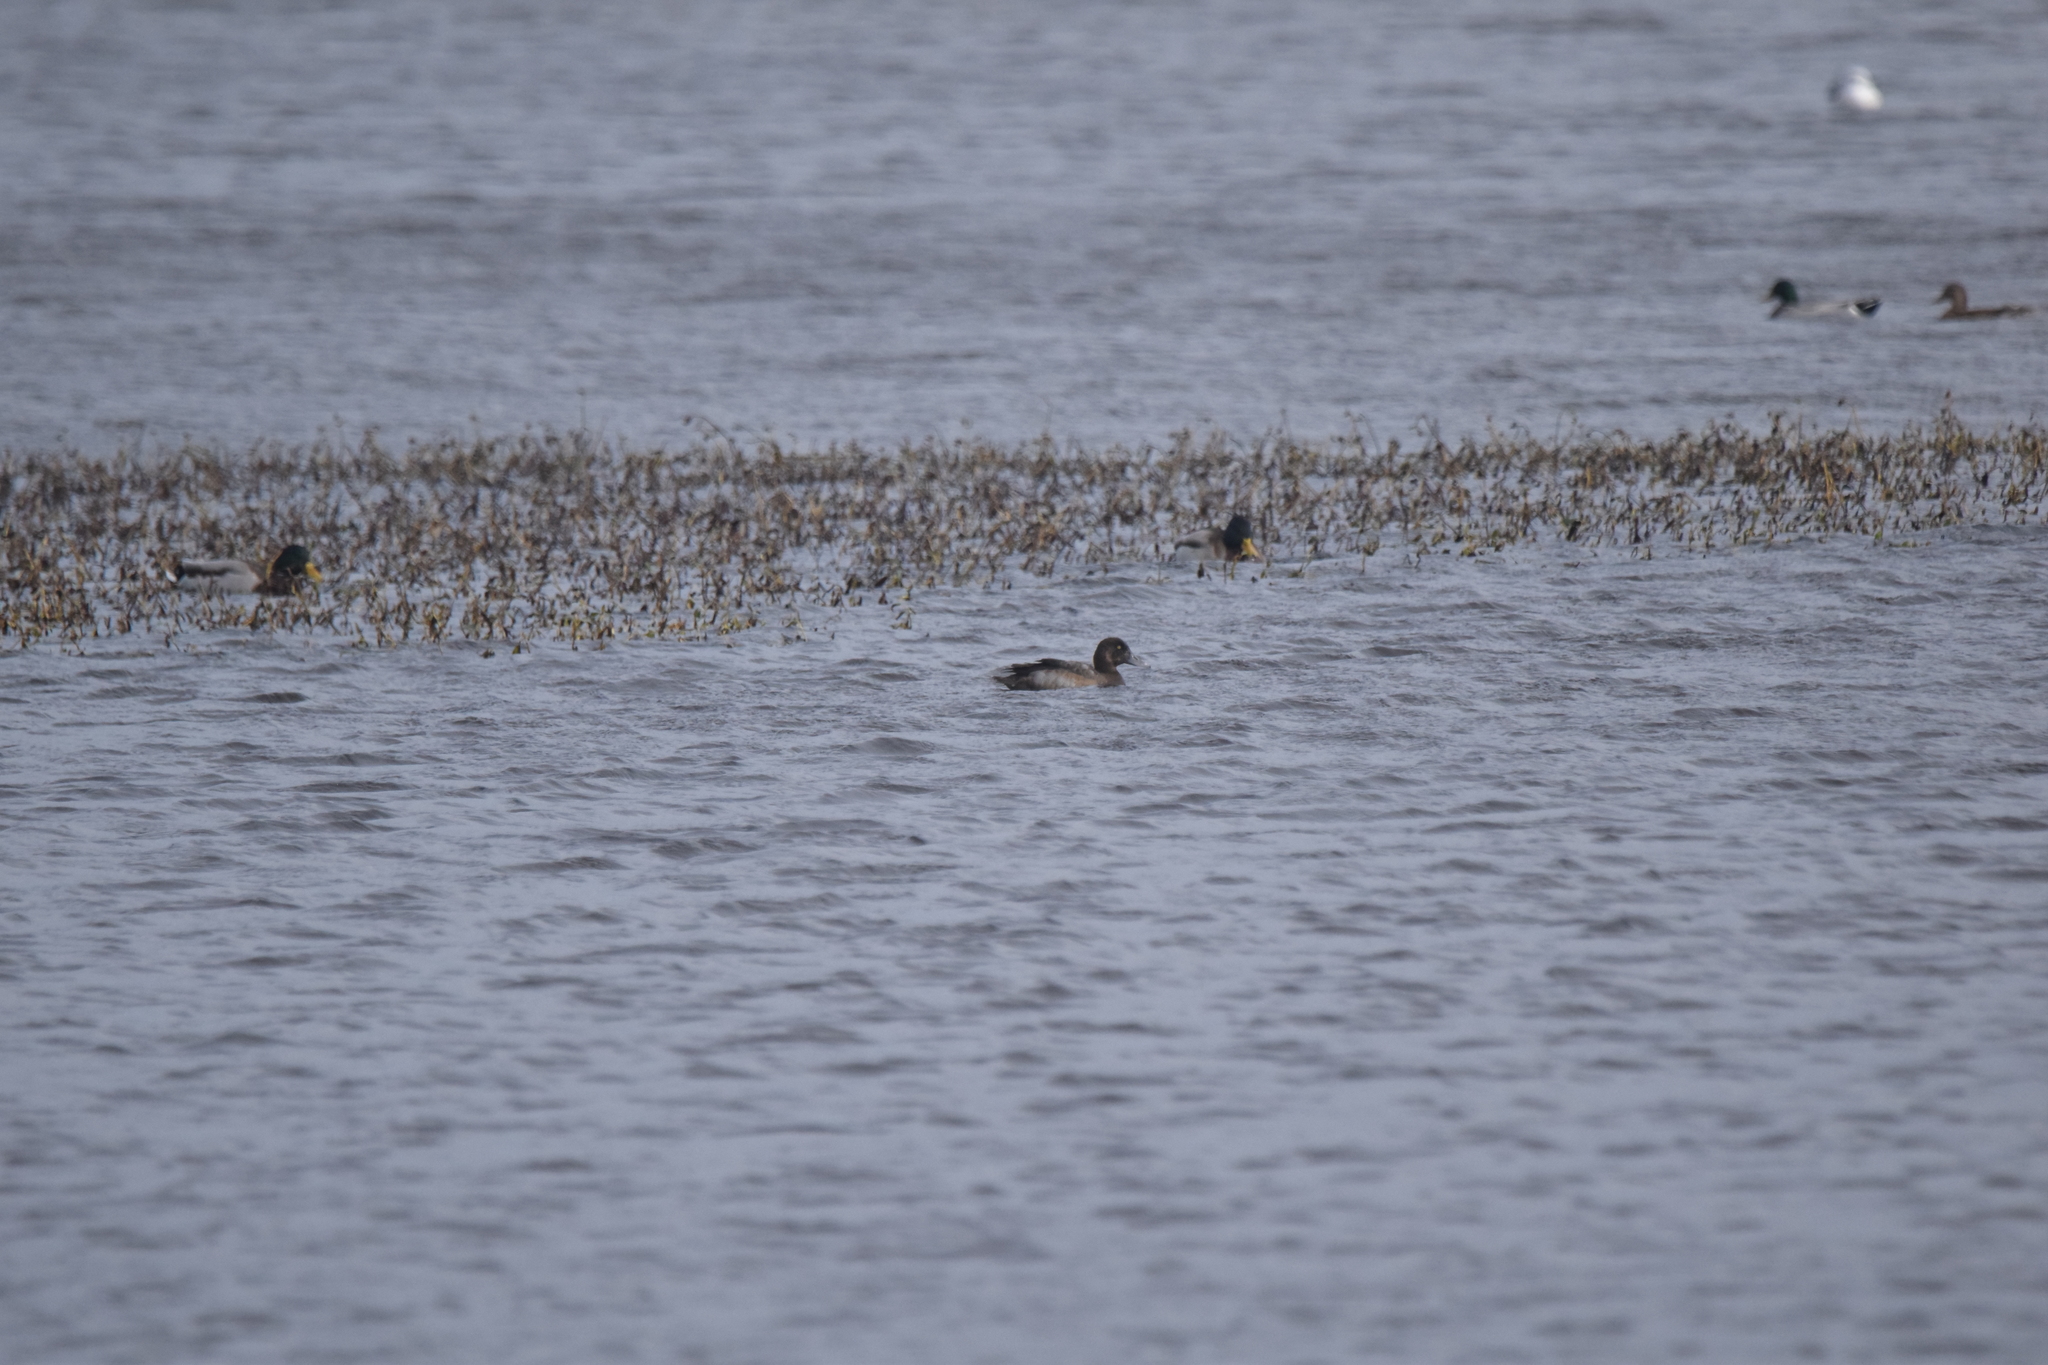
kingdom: Animalia
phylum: Chordata
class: Aves
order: Anseriformes
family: Anatidae
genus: Aythya
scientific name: Aythya marila
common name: Greater scaup
